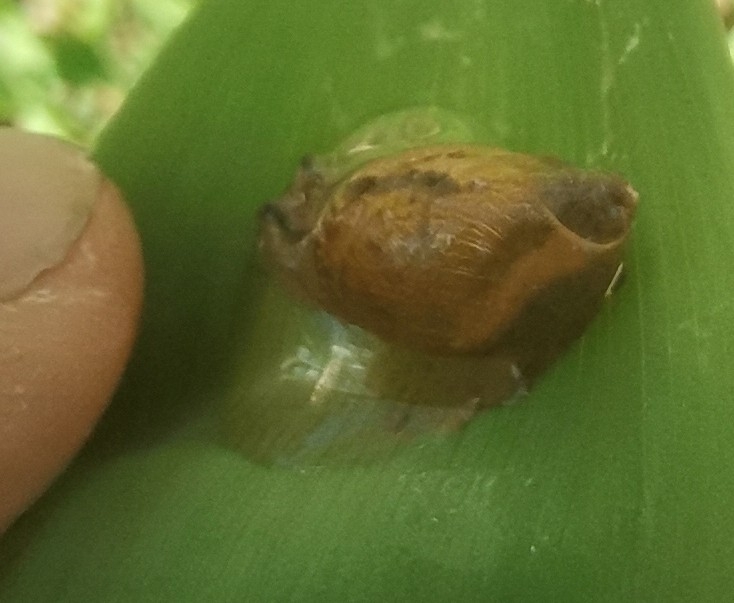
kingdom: Animalia
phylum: Mollusca
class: Gastropoda
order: Stylommatophora
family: Succineidae
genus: Succinea
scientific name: Succinea putris
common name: European ambersnail
